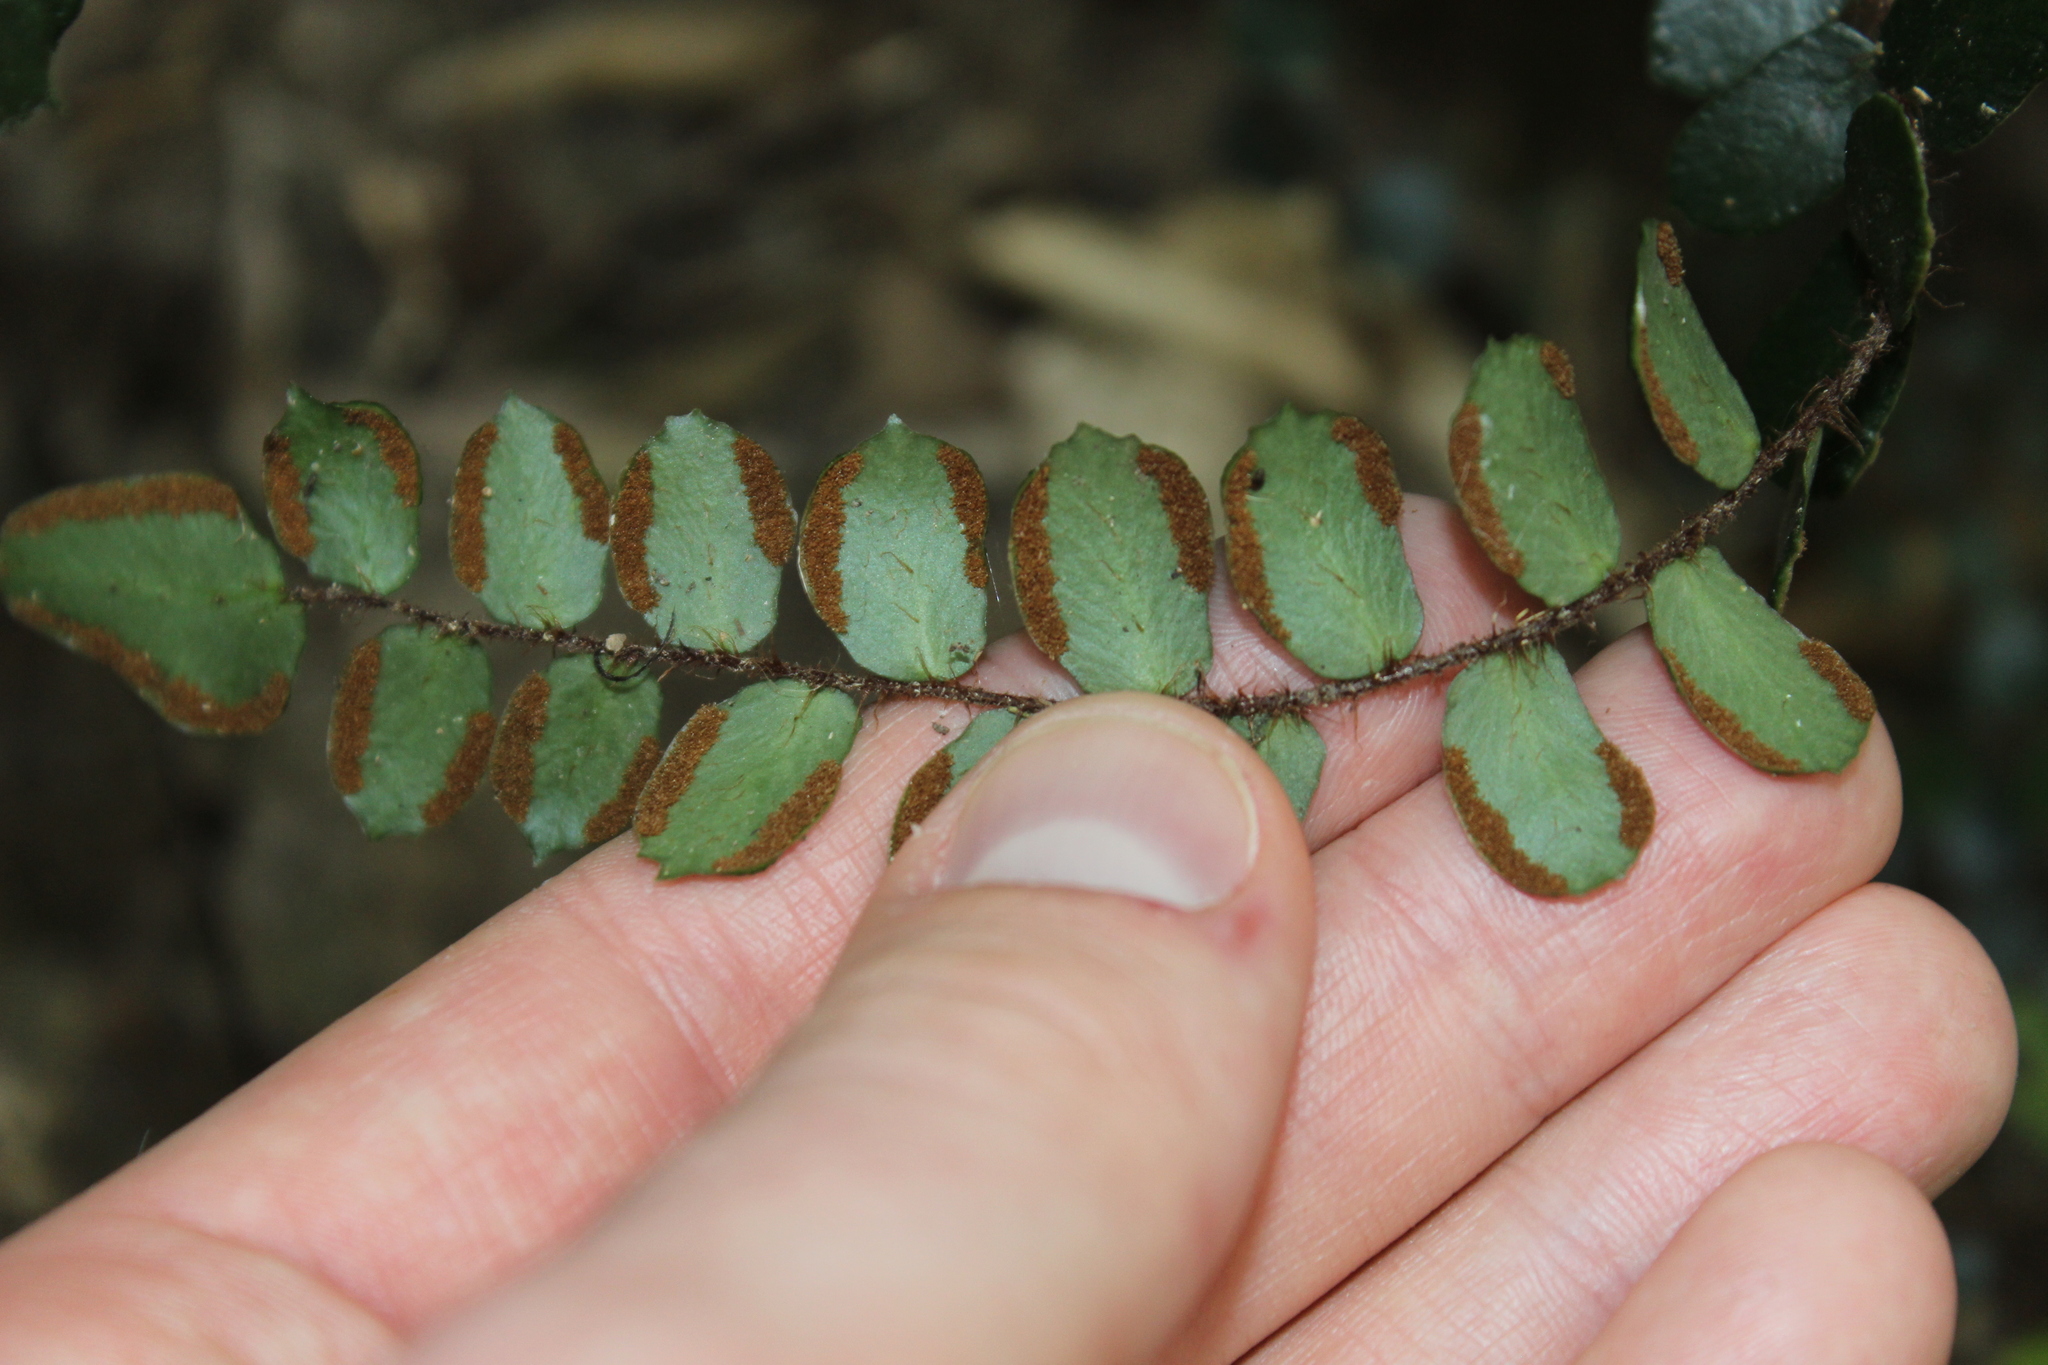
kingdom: Plantae
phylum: Tracheophyta
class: Polypodiopsida
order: Polypodiales
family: Pteridaceae
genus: Pellaea
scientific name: Pellaea rotundifolia
